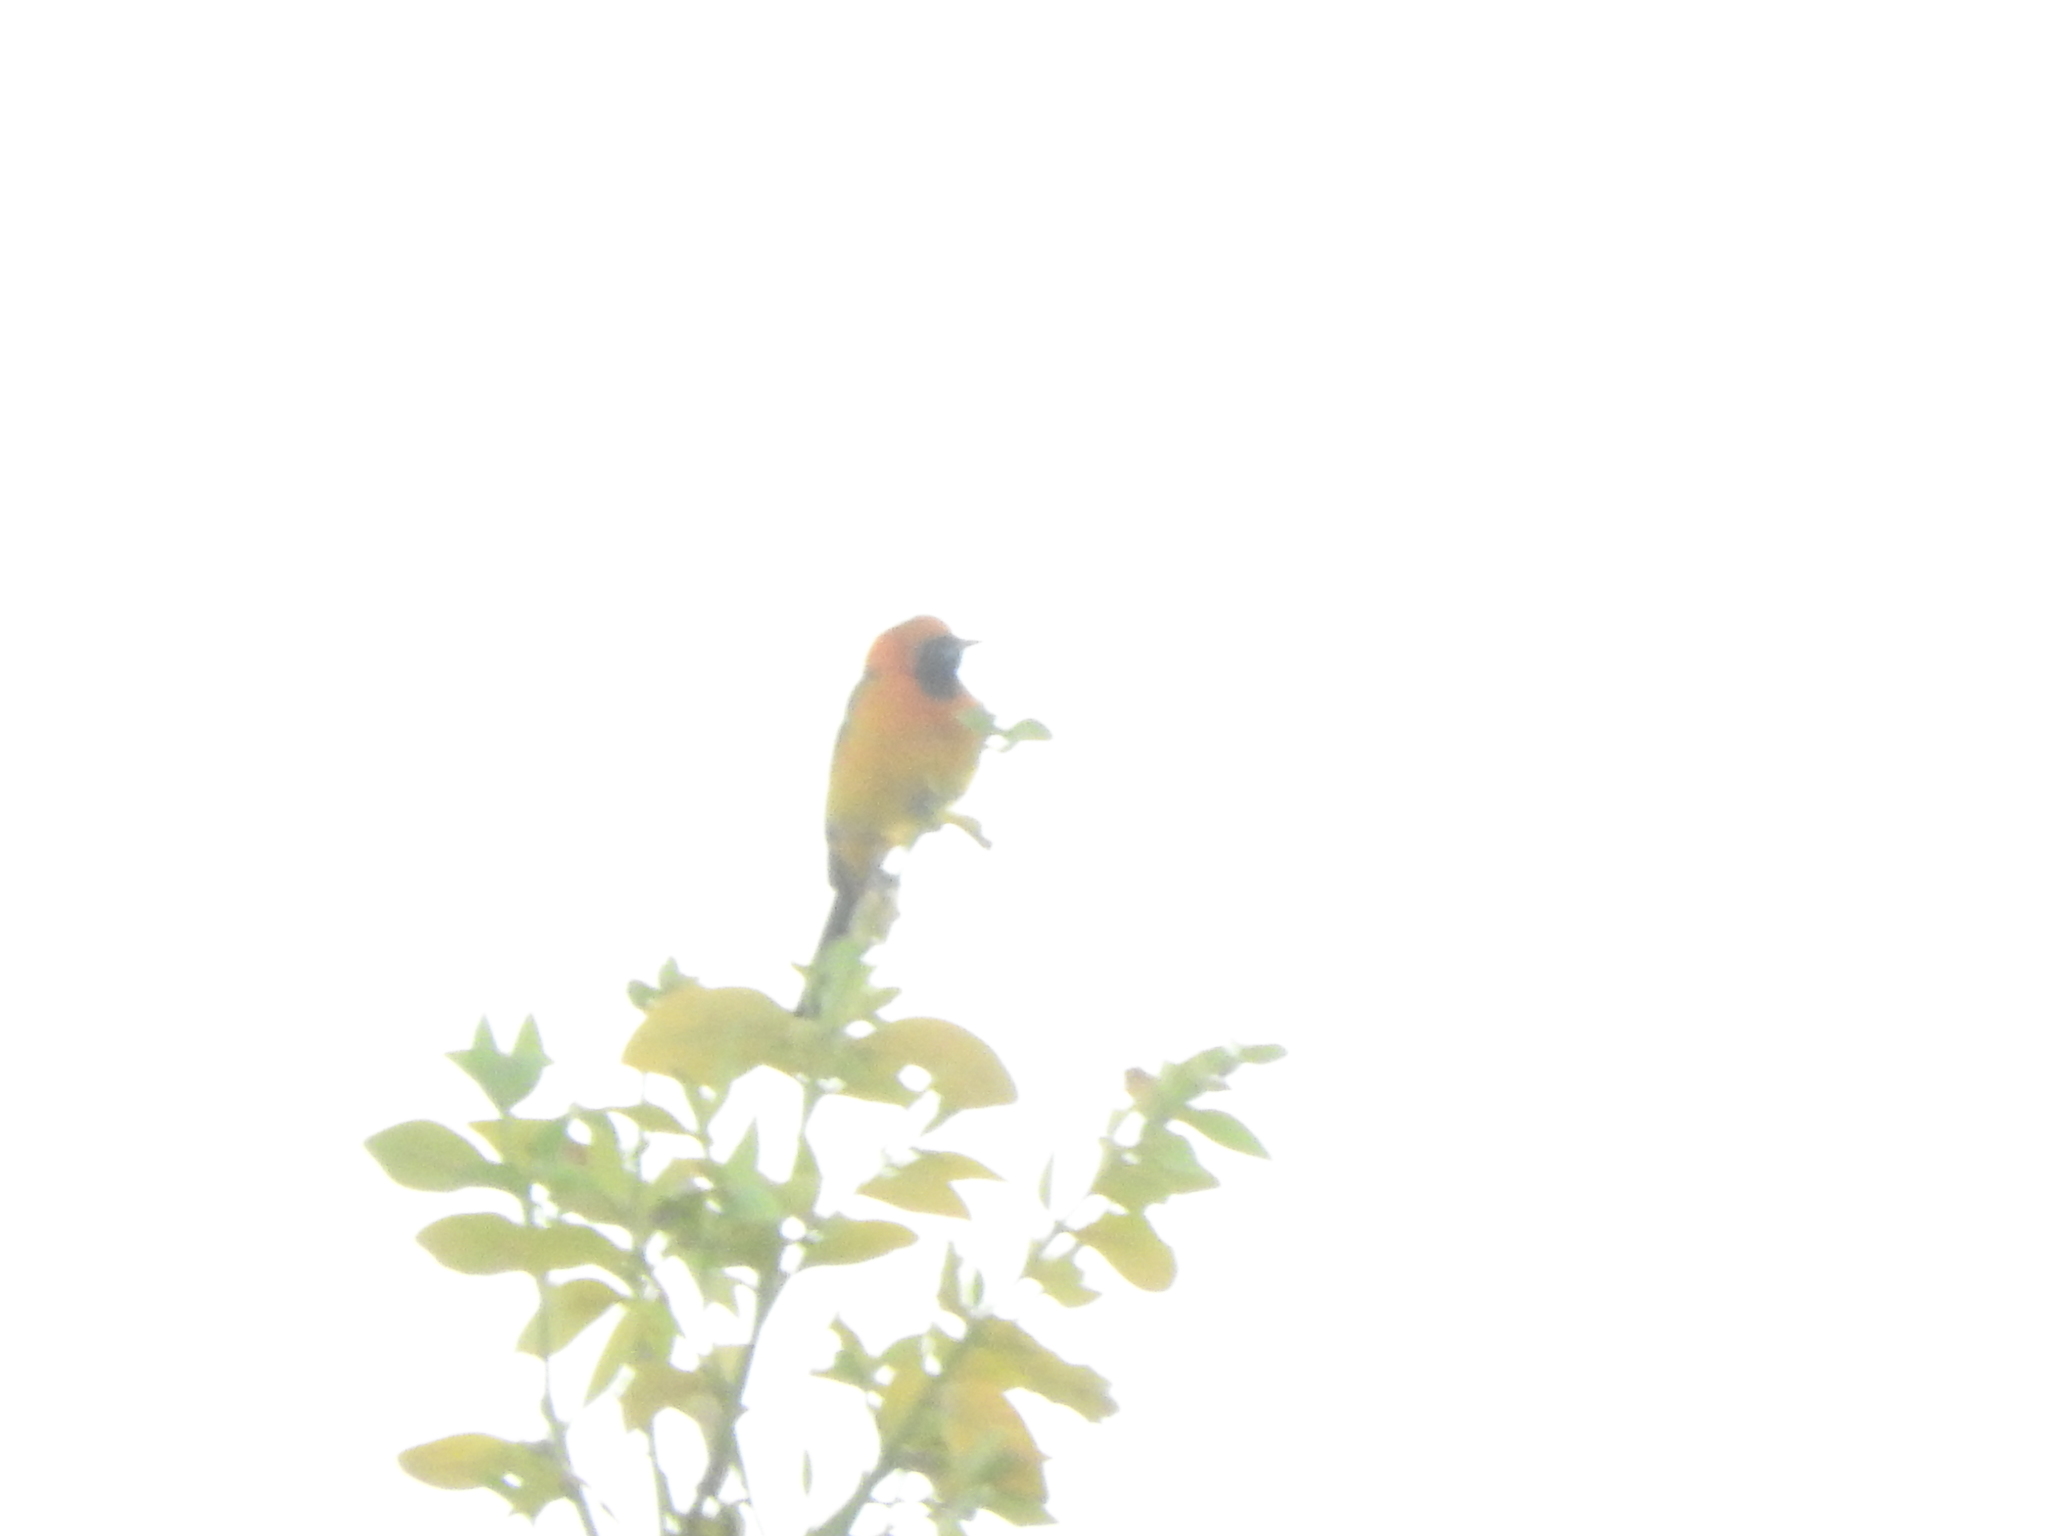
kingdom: Animalia
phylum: Chordata
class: Aves
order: Passeriformes
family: Icteridae
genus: Icterus
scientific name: Icterus cucullatus
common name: Hooded oriole
